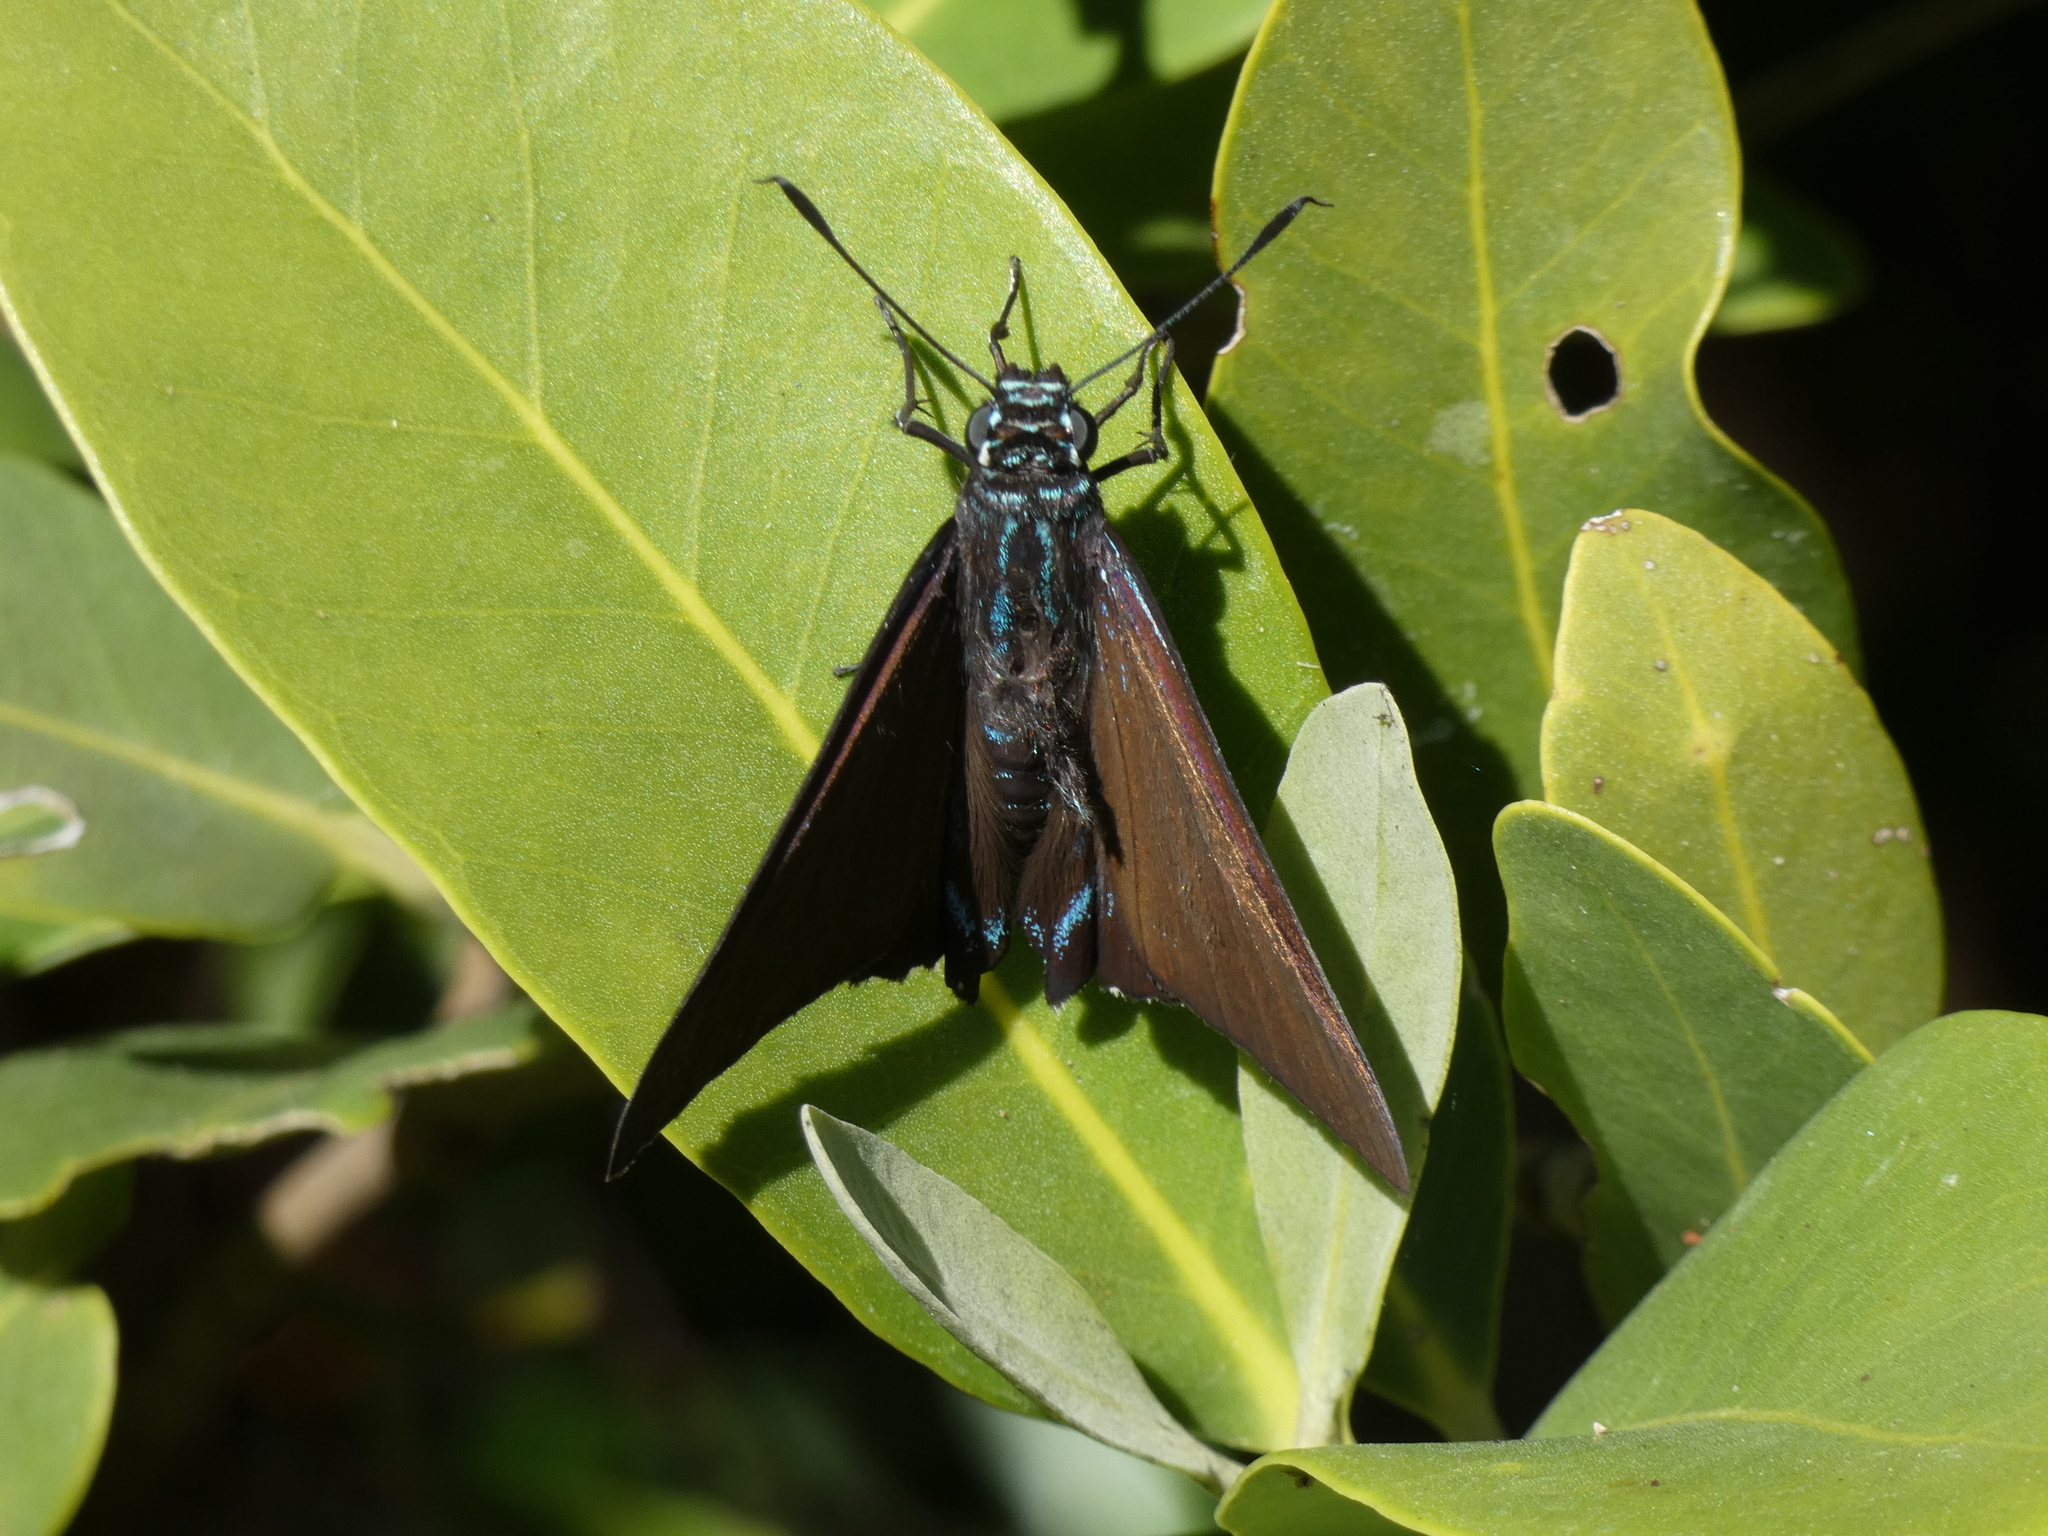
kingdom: Animalia
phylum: Arthropoda
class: Insecta
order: Lepidoptera
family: Hesperiidae
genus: Phocides
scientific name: Phocides pigmalion
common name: Mangrove skipper
